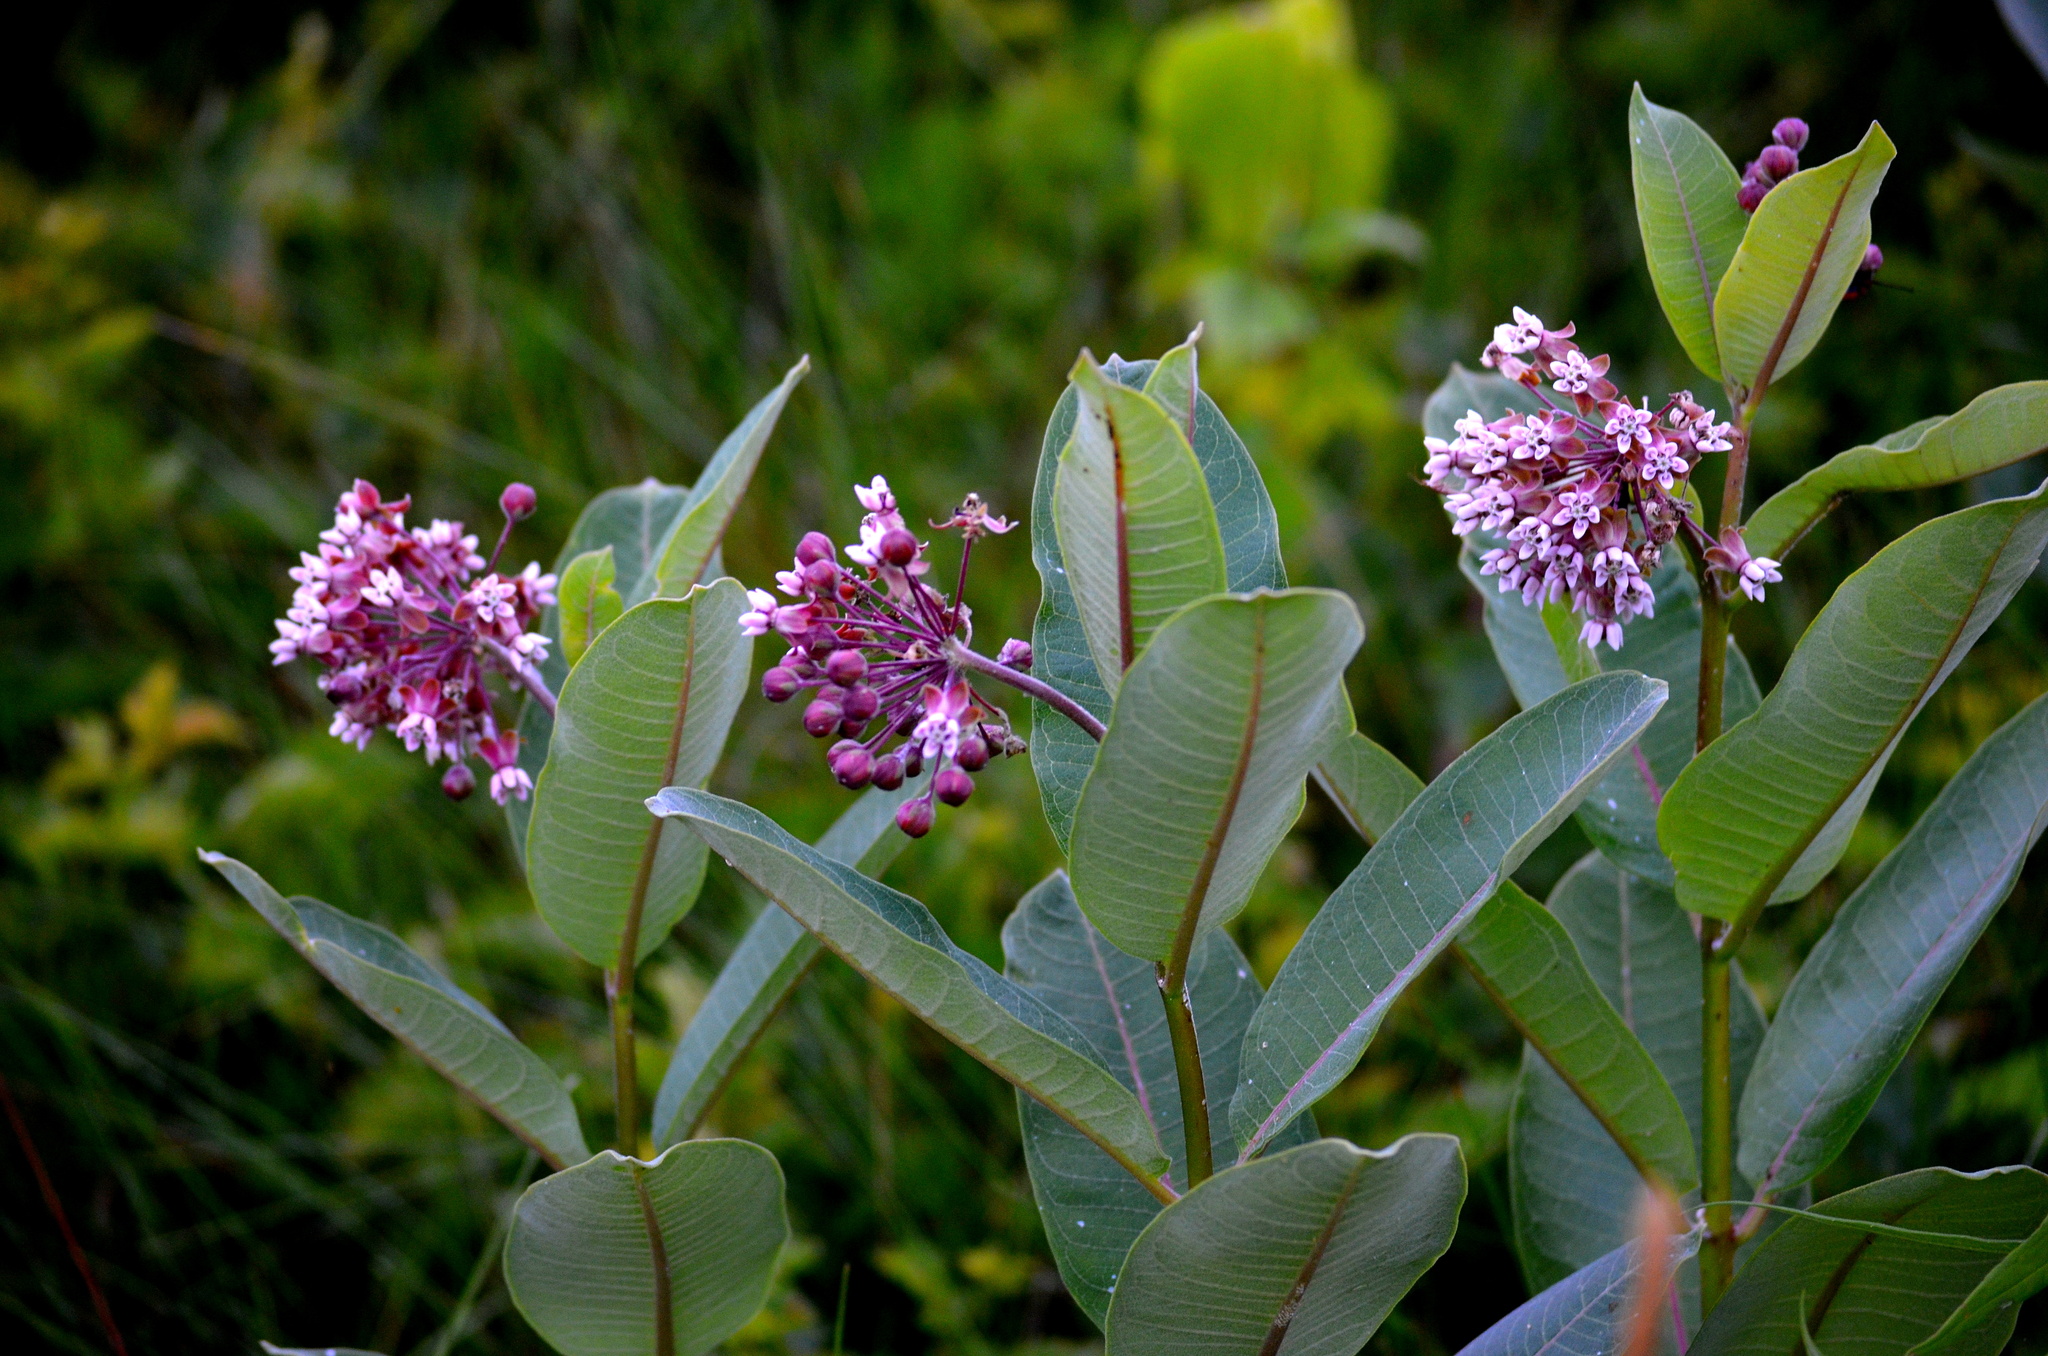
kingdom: Plantae
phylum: Tracheophyta
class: Magnoliopsida
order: Gentianales
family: Apocynaceae
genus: Asclepias
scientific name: Asclepias syriaca
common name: Common milkweed
